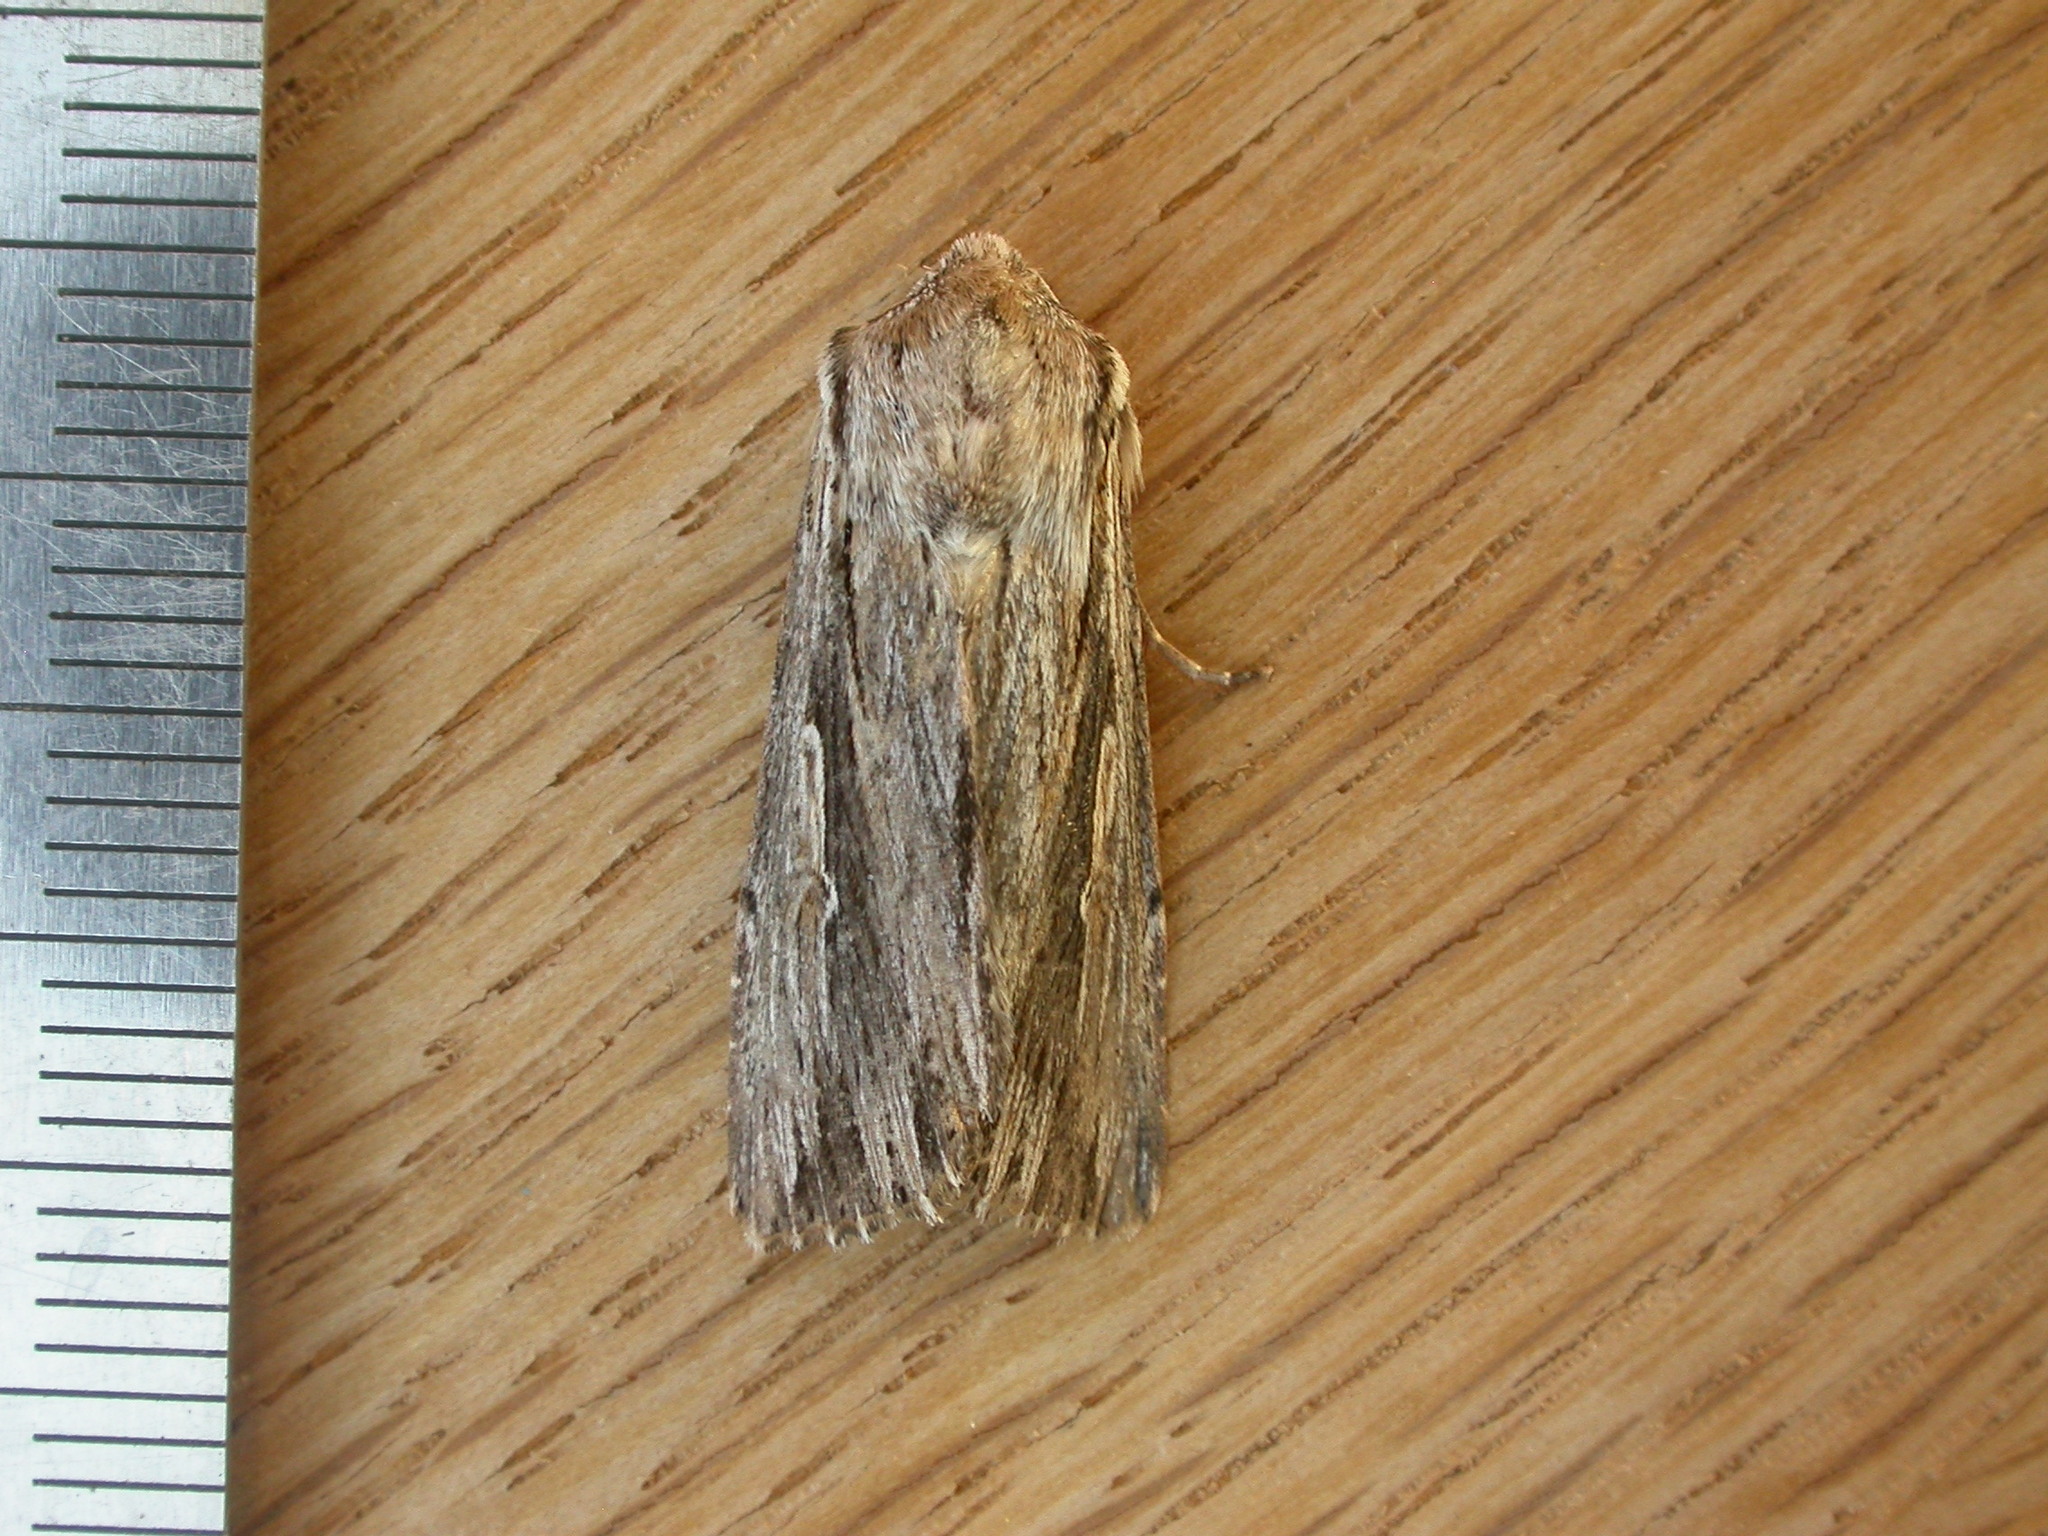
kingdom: Animalia
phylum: Arthropoda
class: Insecta
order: Lepidoptera
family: Noctuidae
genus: Persectania
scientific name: Persectania ewingii
